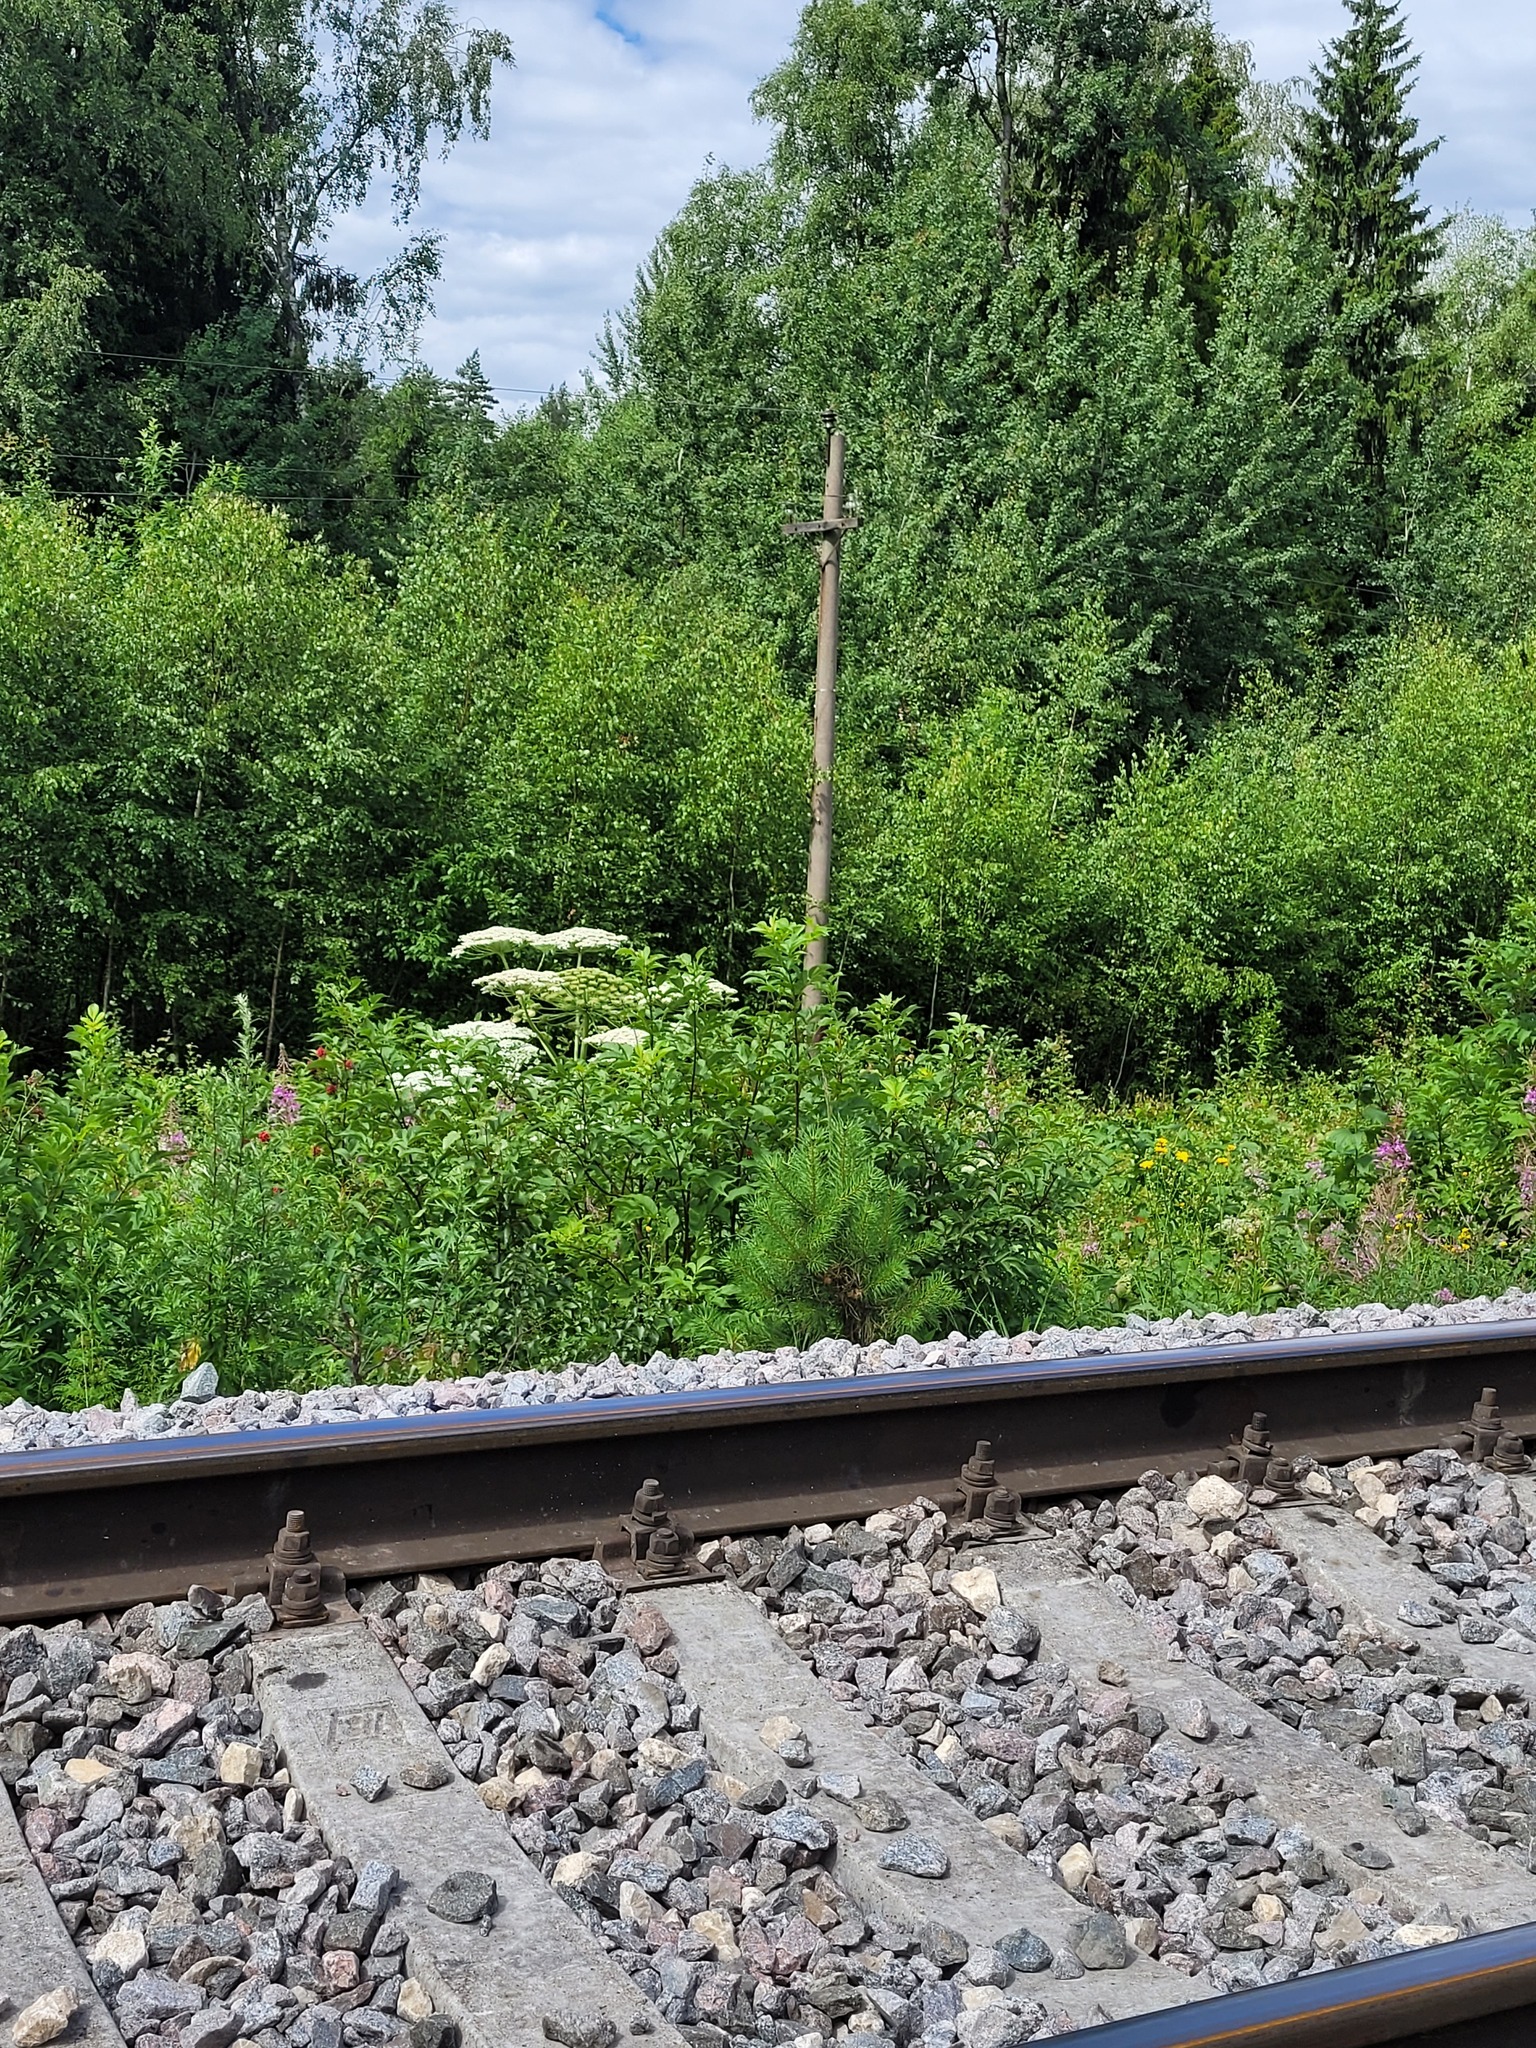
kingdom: Plantae
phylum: Tracheophyta
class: Pinopsida
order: Pinales
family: Pinaceae
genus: Pinus
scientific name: Pinus sylvestris
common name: Scots pine
